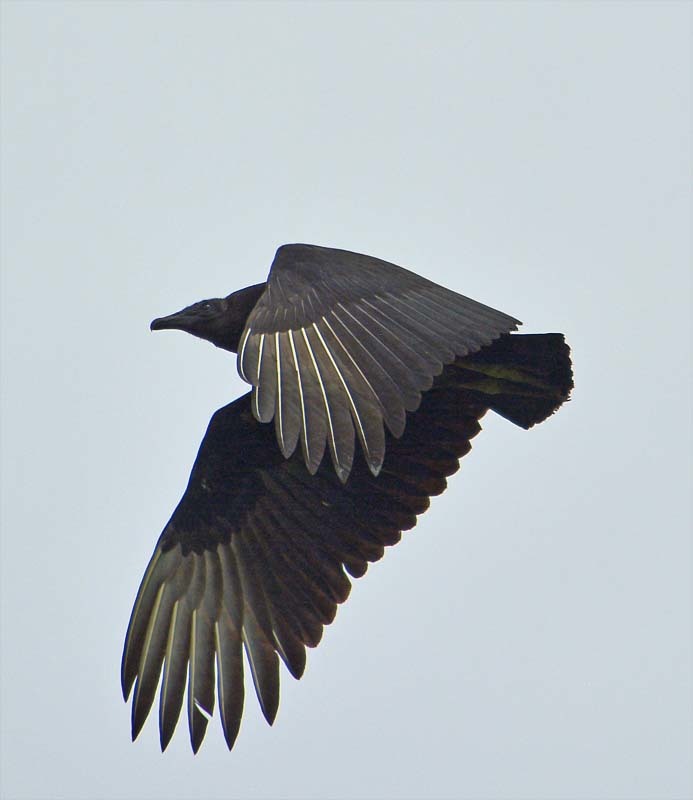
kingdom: Animalia
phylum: Chordata
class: Aves
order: Accipitriformes
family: Cathartidae
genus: Coragyps
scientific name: Coragyps atratus
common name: Black vulture
